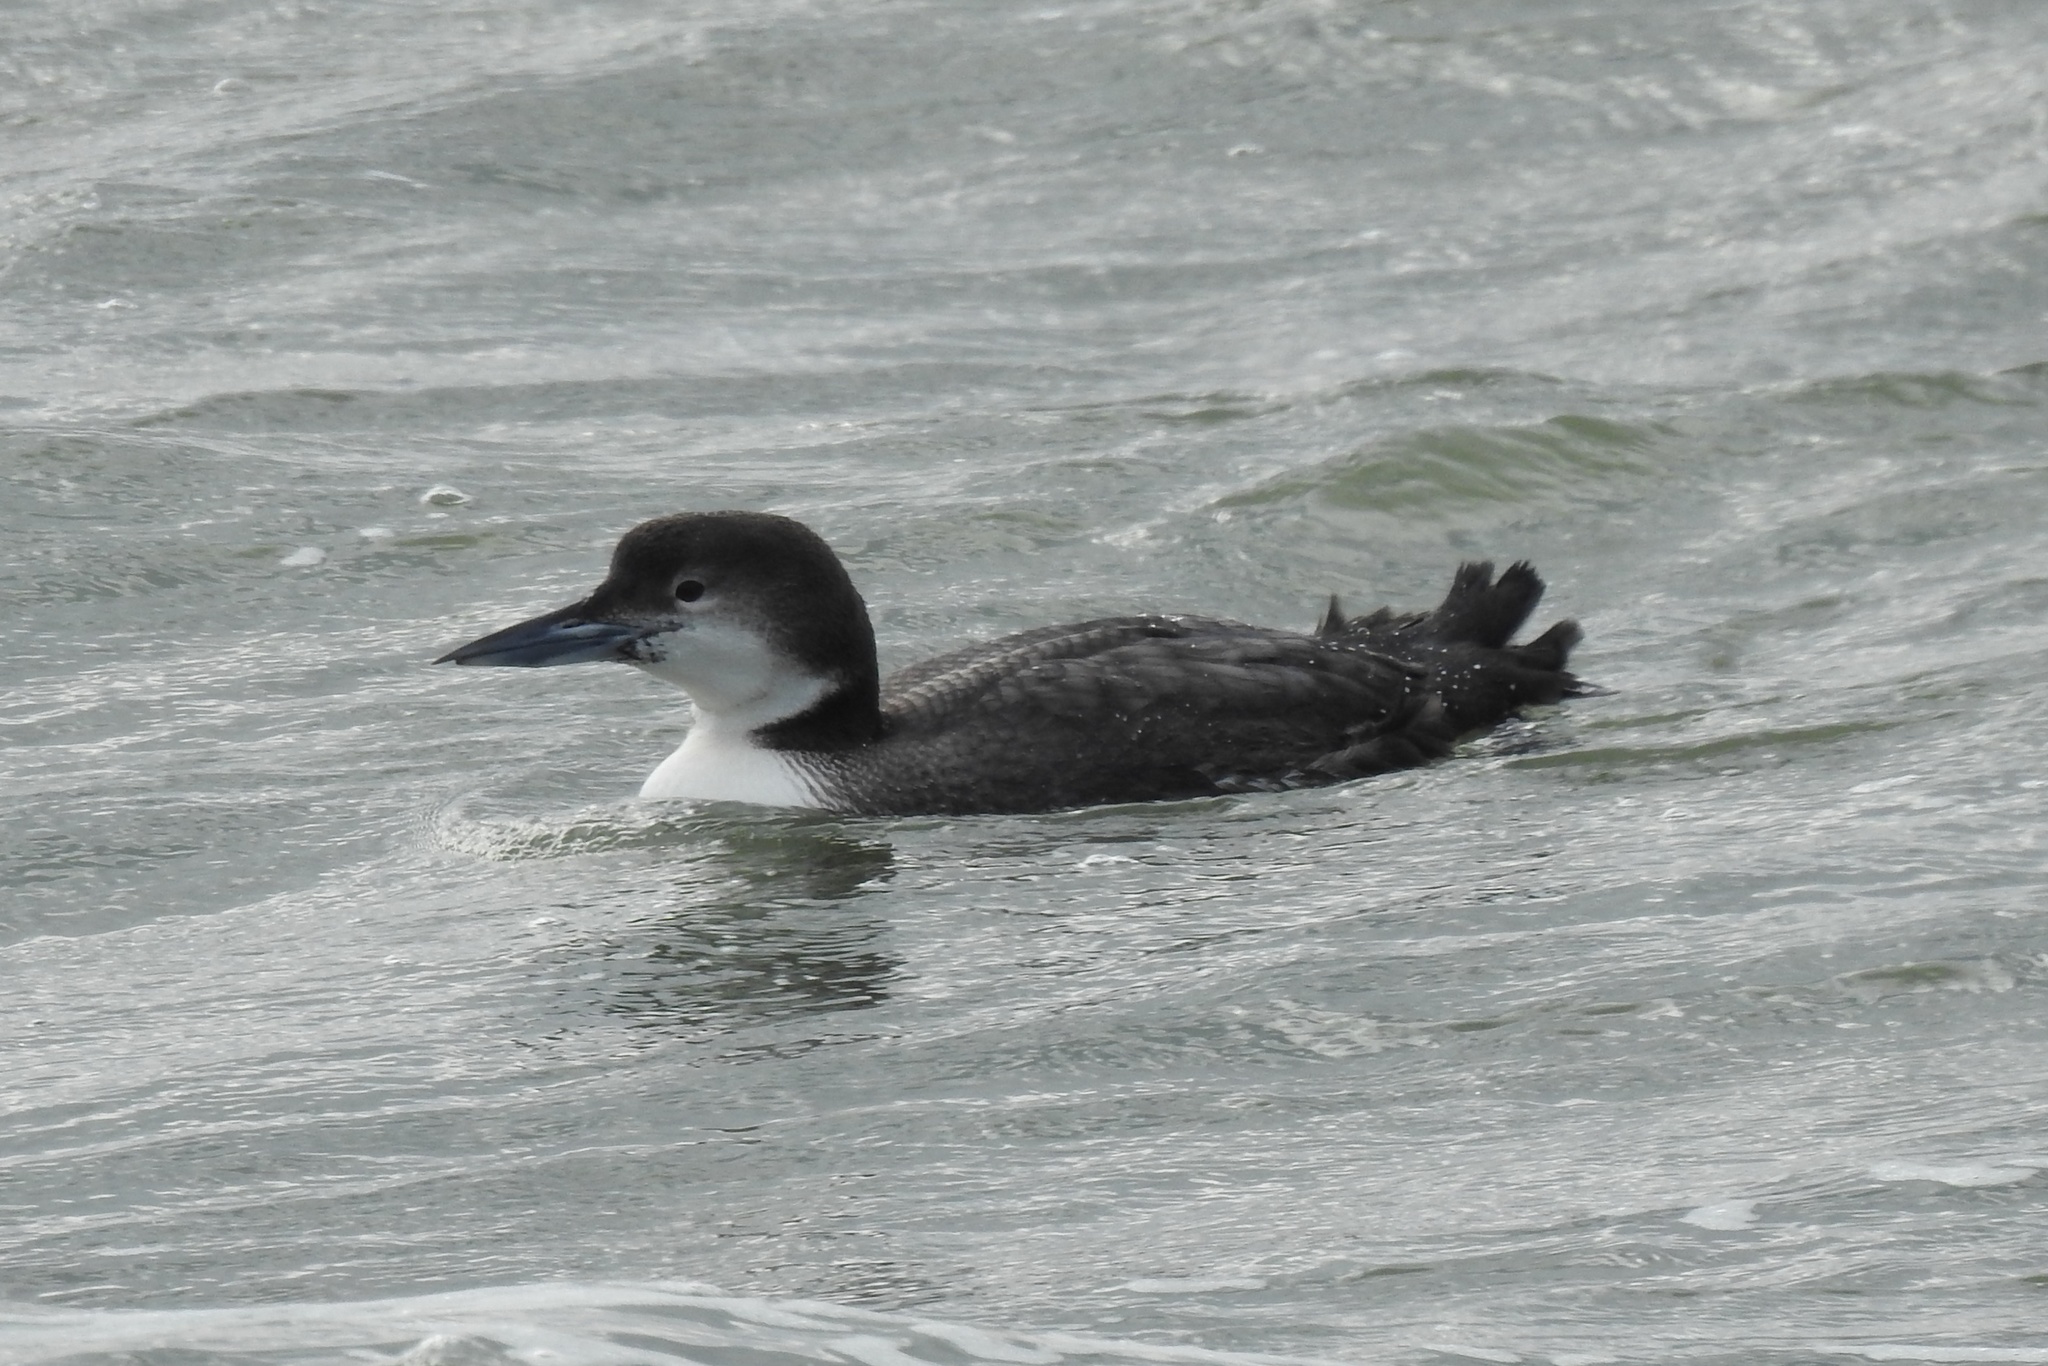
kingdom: Animalia
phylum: Chordata
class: Aves
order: Gaviiformes
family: Gaviidae
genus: Gavia
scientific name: Gavia immer
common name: Common loon
